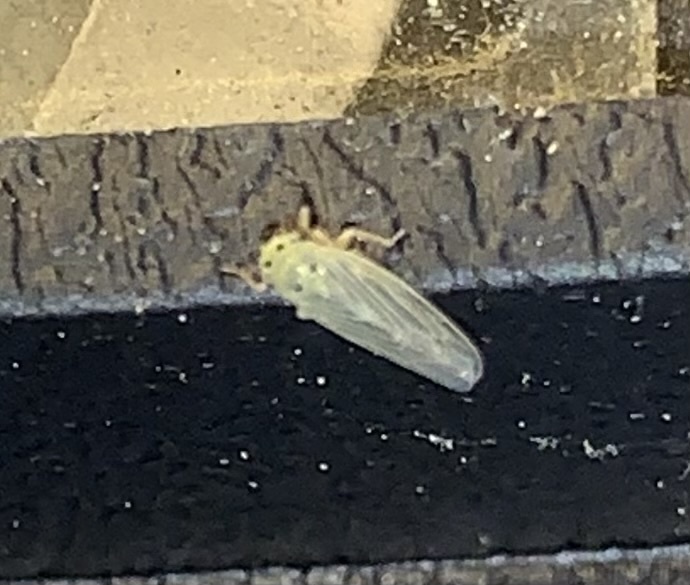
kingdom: Animalia
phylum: Arthropoda
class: Insecta
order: Hemiptera
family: Cicadellidae
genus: Macrosteles
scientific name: Macrosteles lepidus
